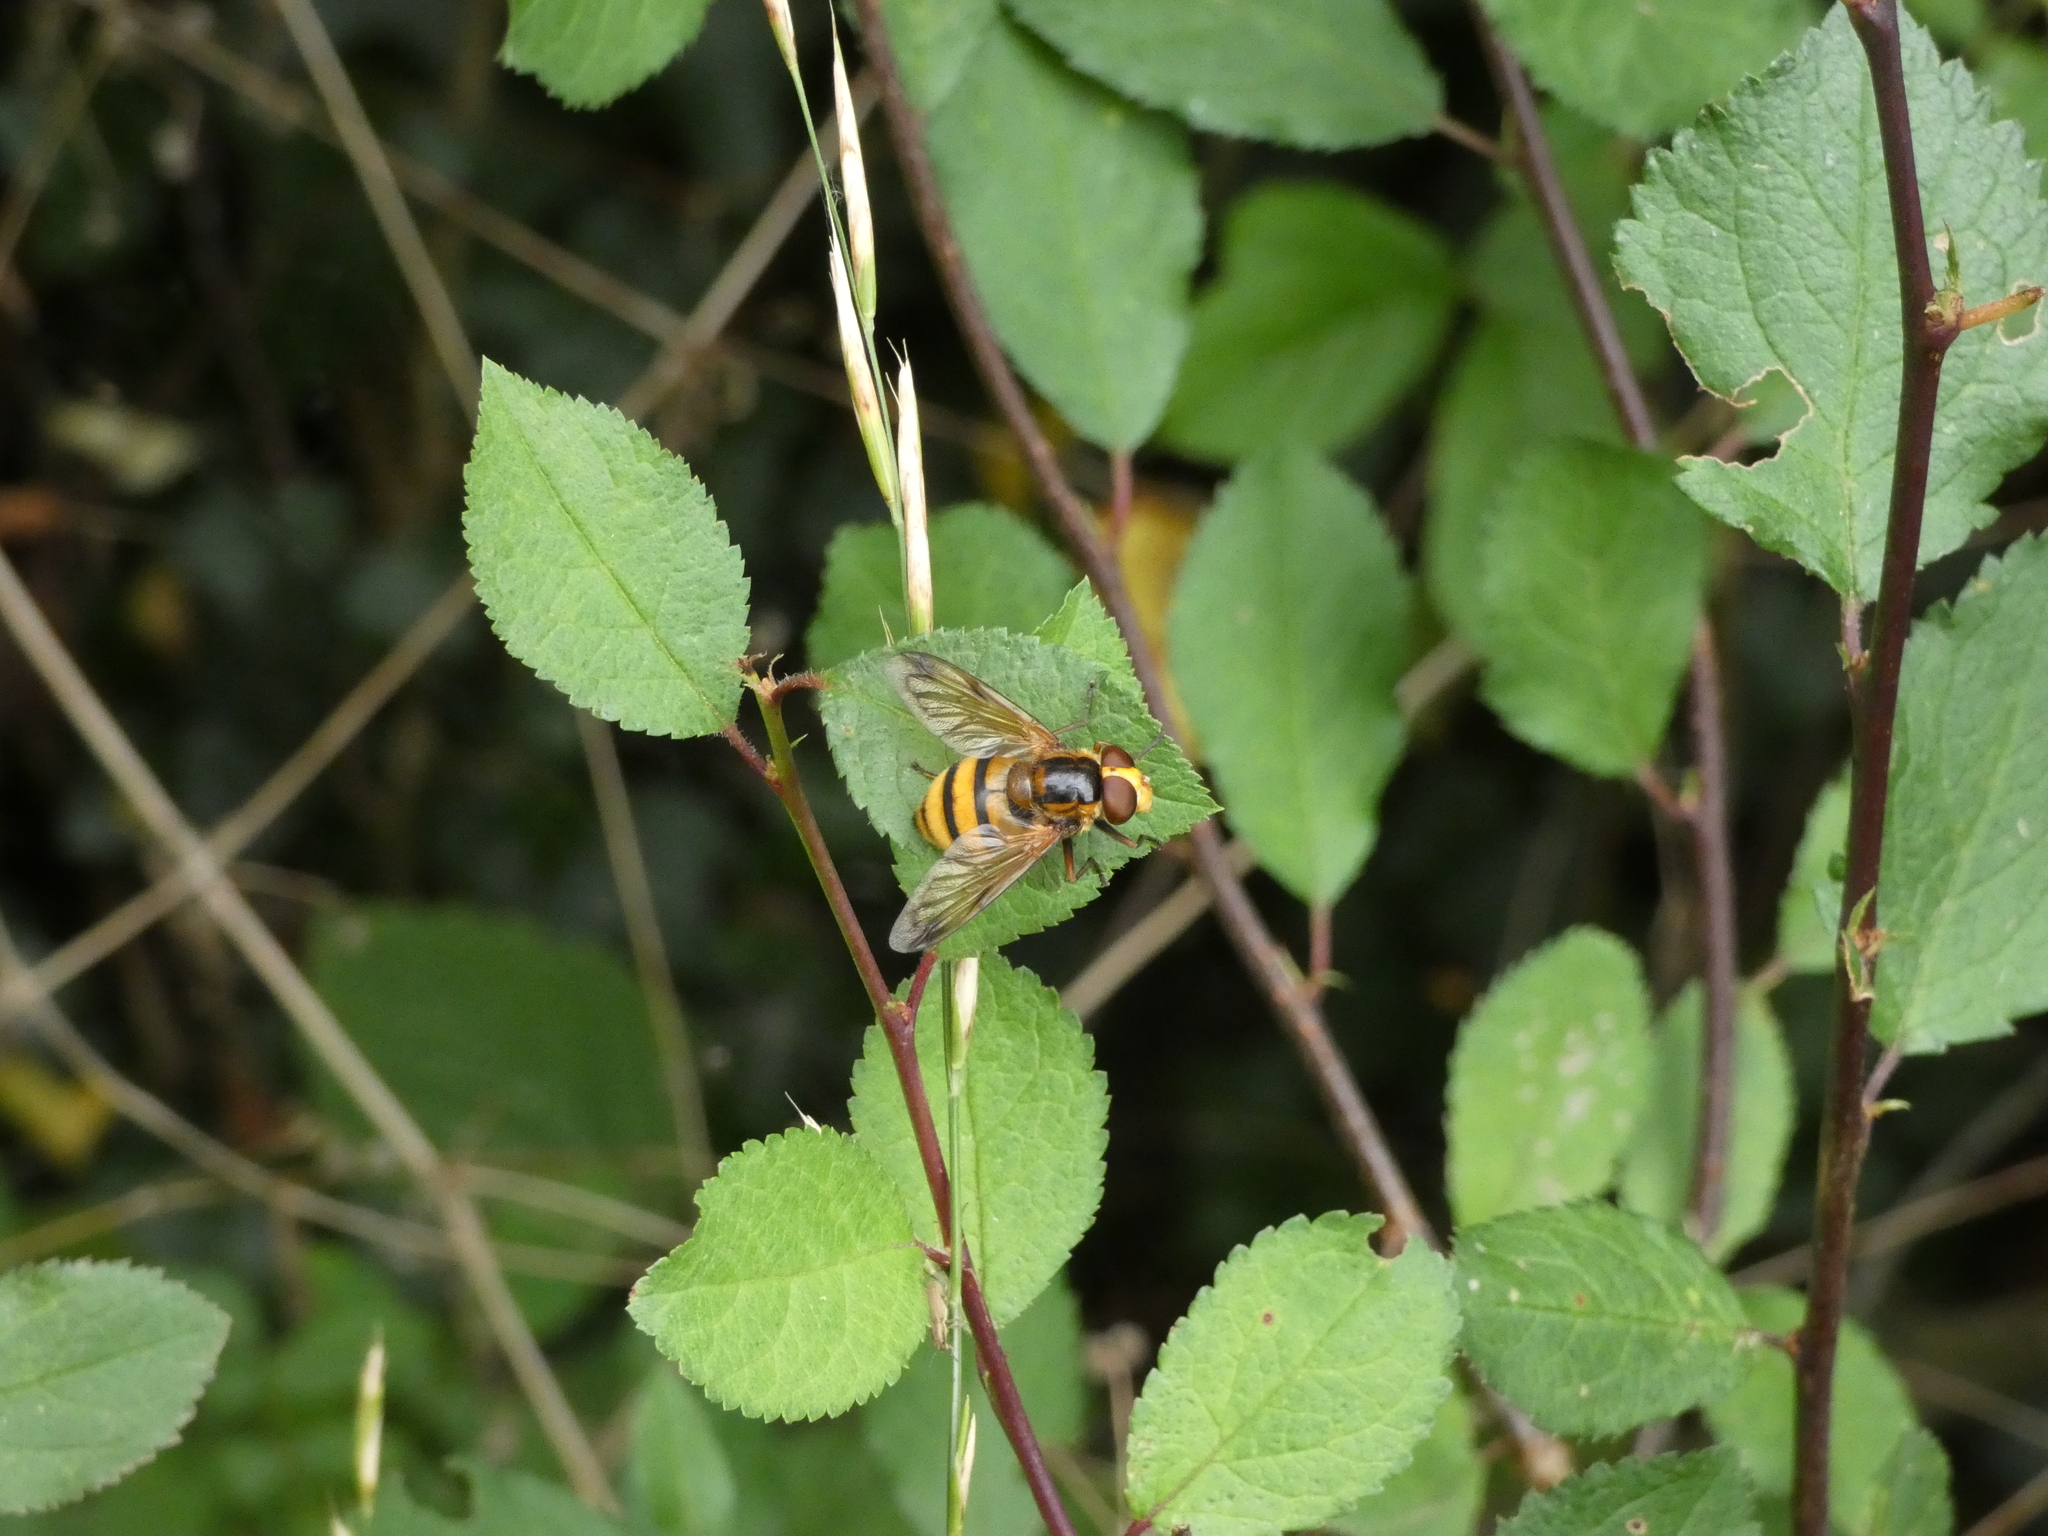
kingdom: Animalia
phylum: Arthropoda
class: Insecta
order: Diptera
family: Syrphidae
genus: Volucella
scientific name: Volucella inanis
